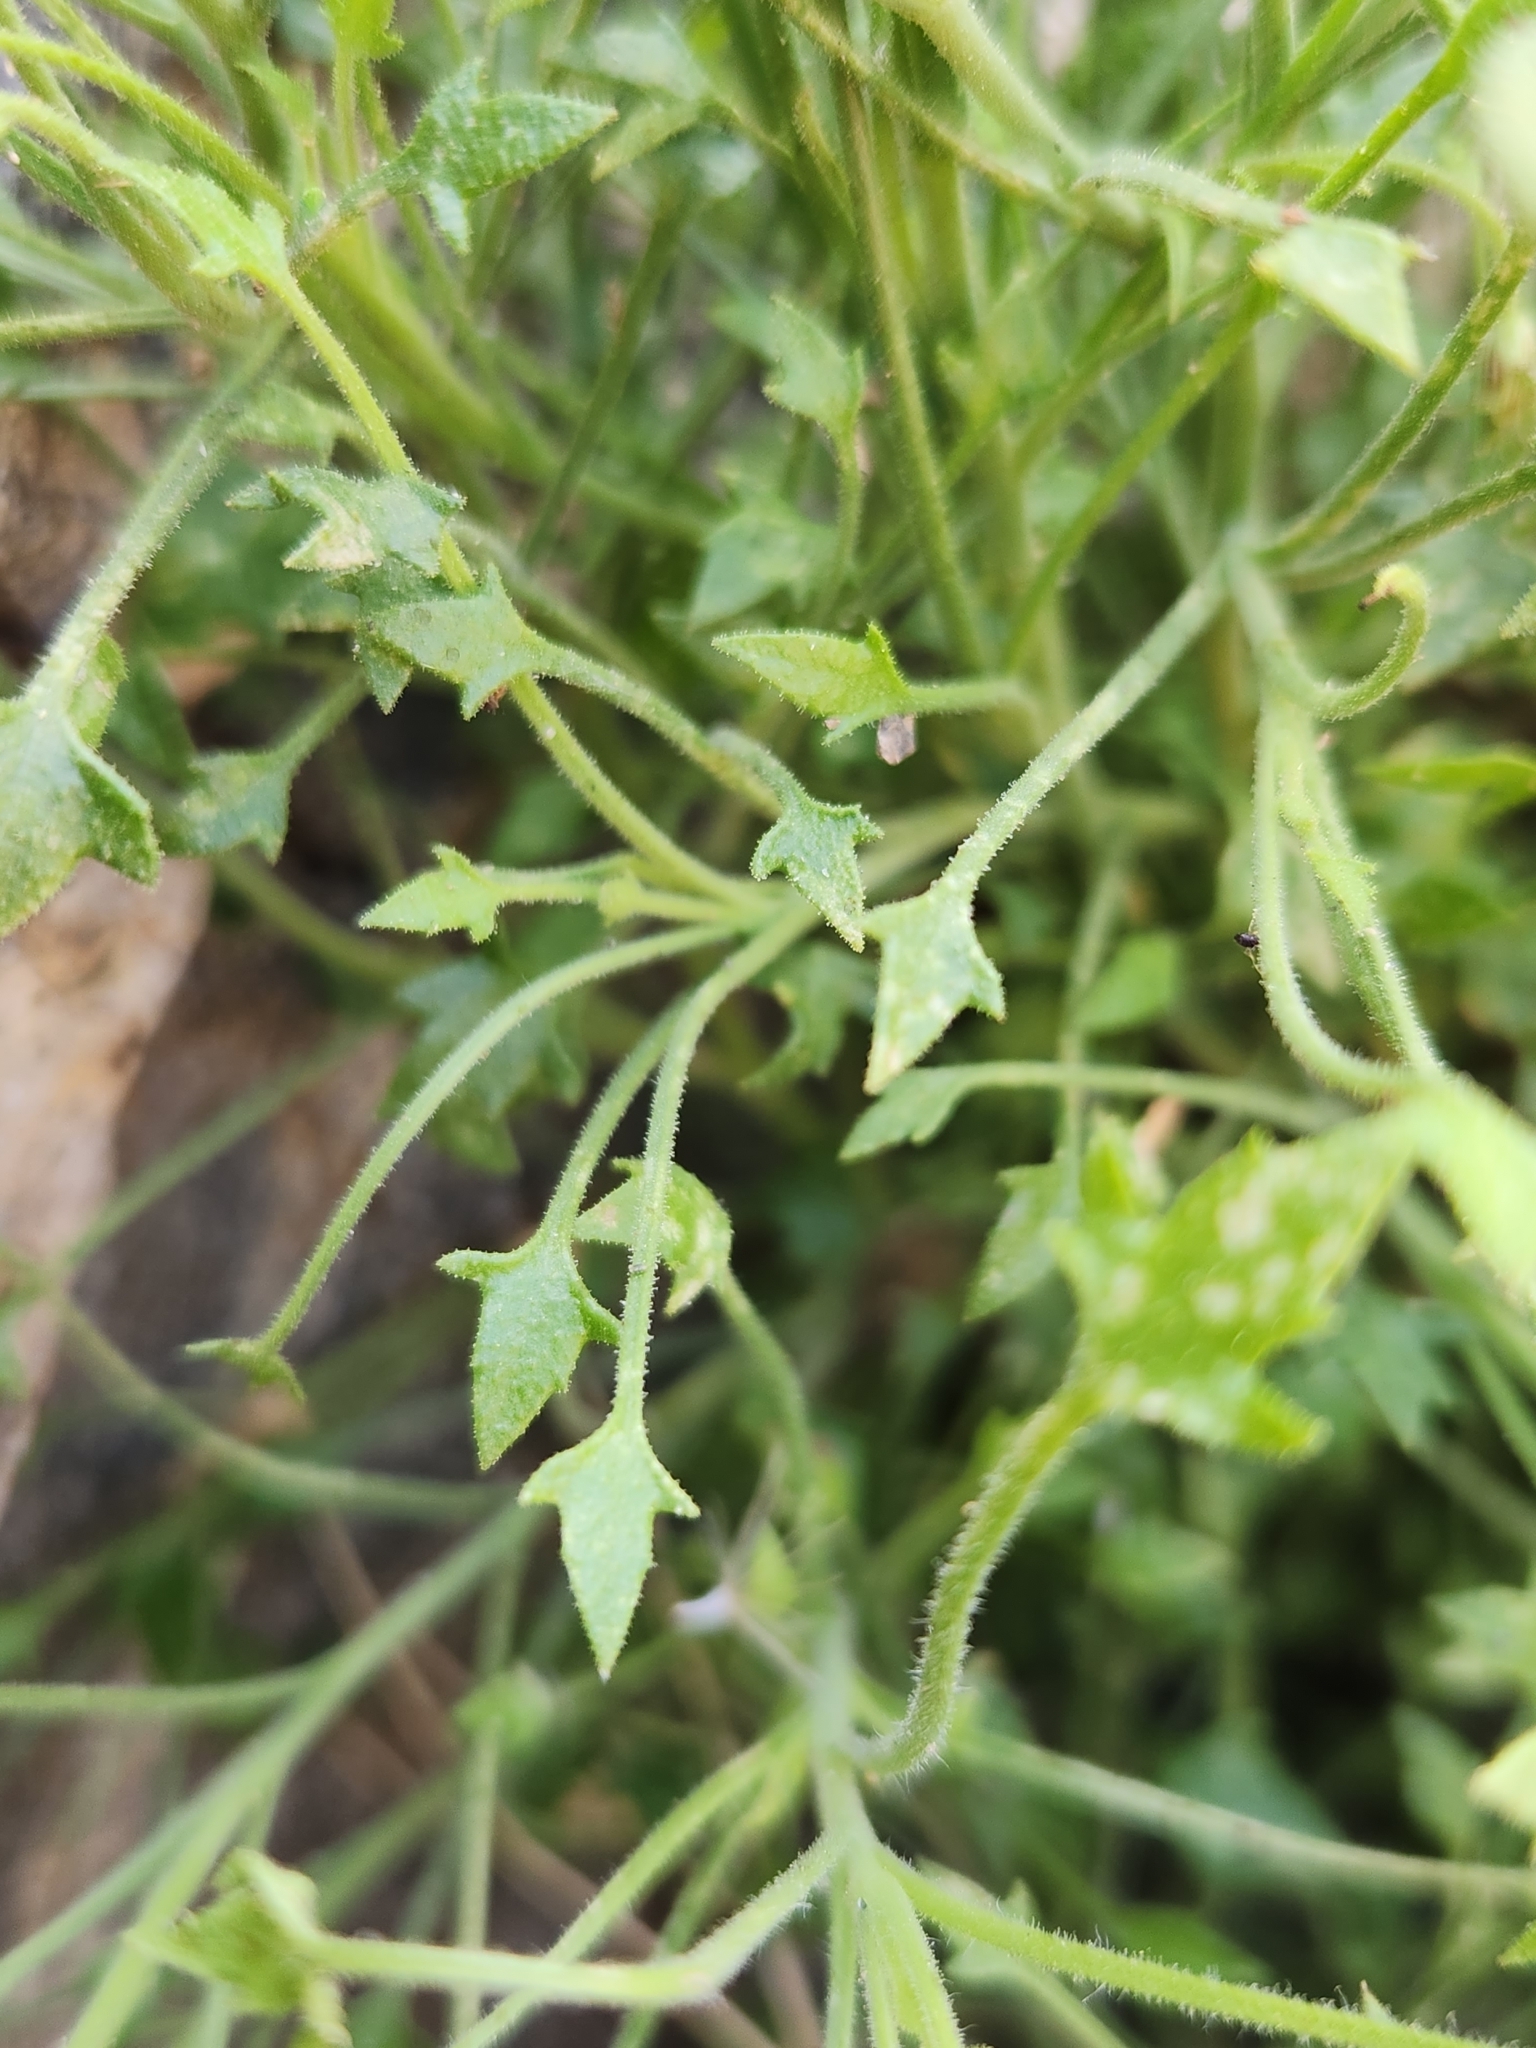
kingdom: Plantae
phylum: Tracheophyta
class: Magnoliopsida
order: Asterales
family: Asteraceae
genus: Pleurocoronis
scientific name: Pleurocoronis pluriseta
